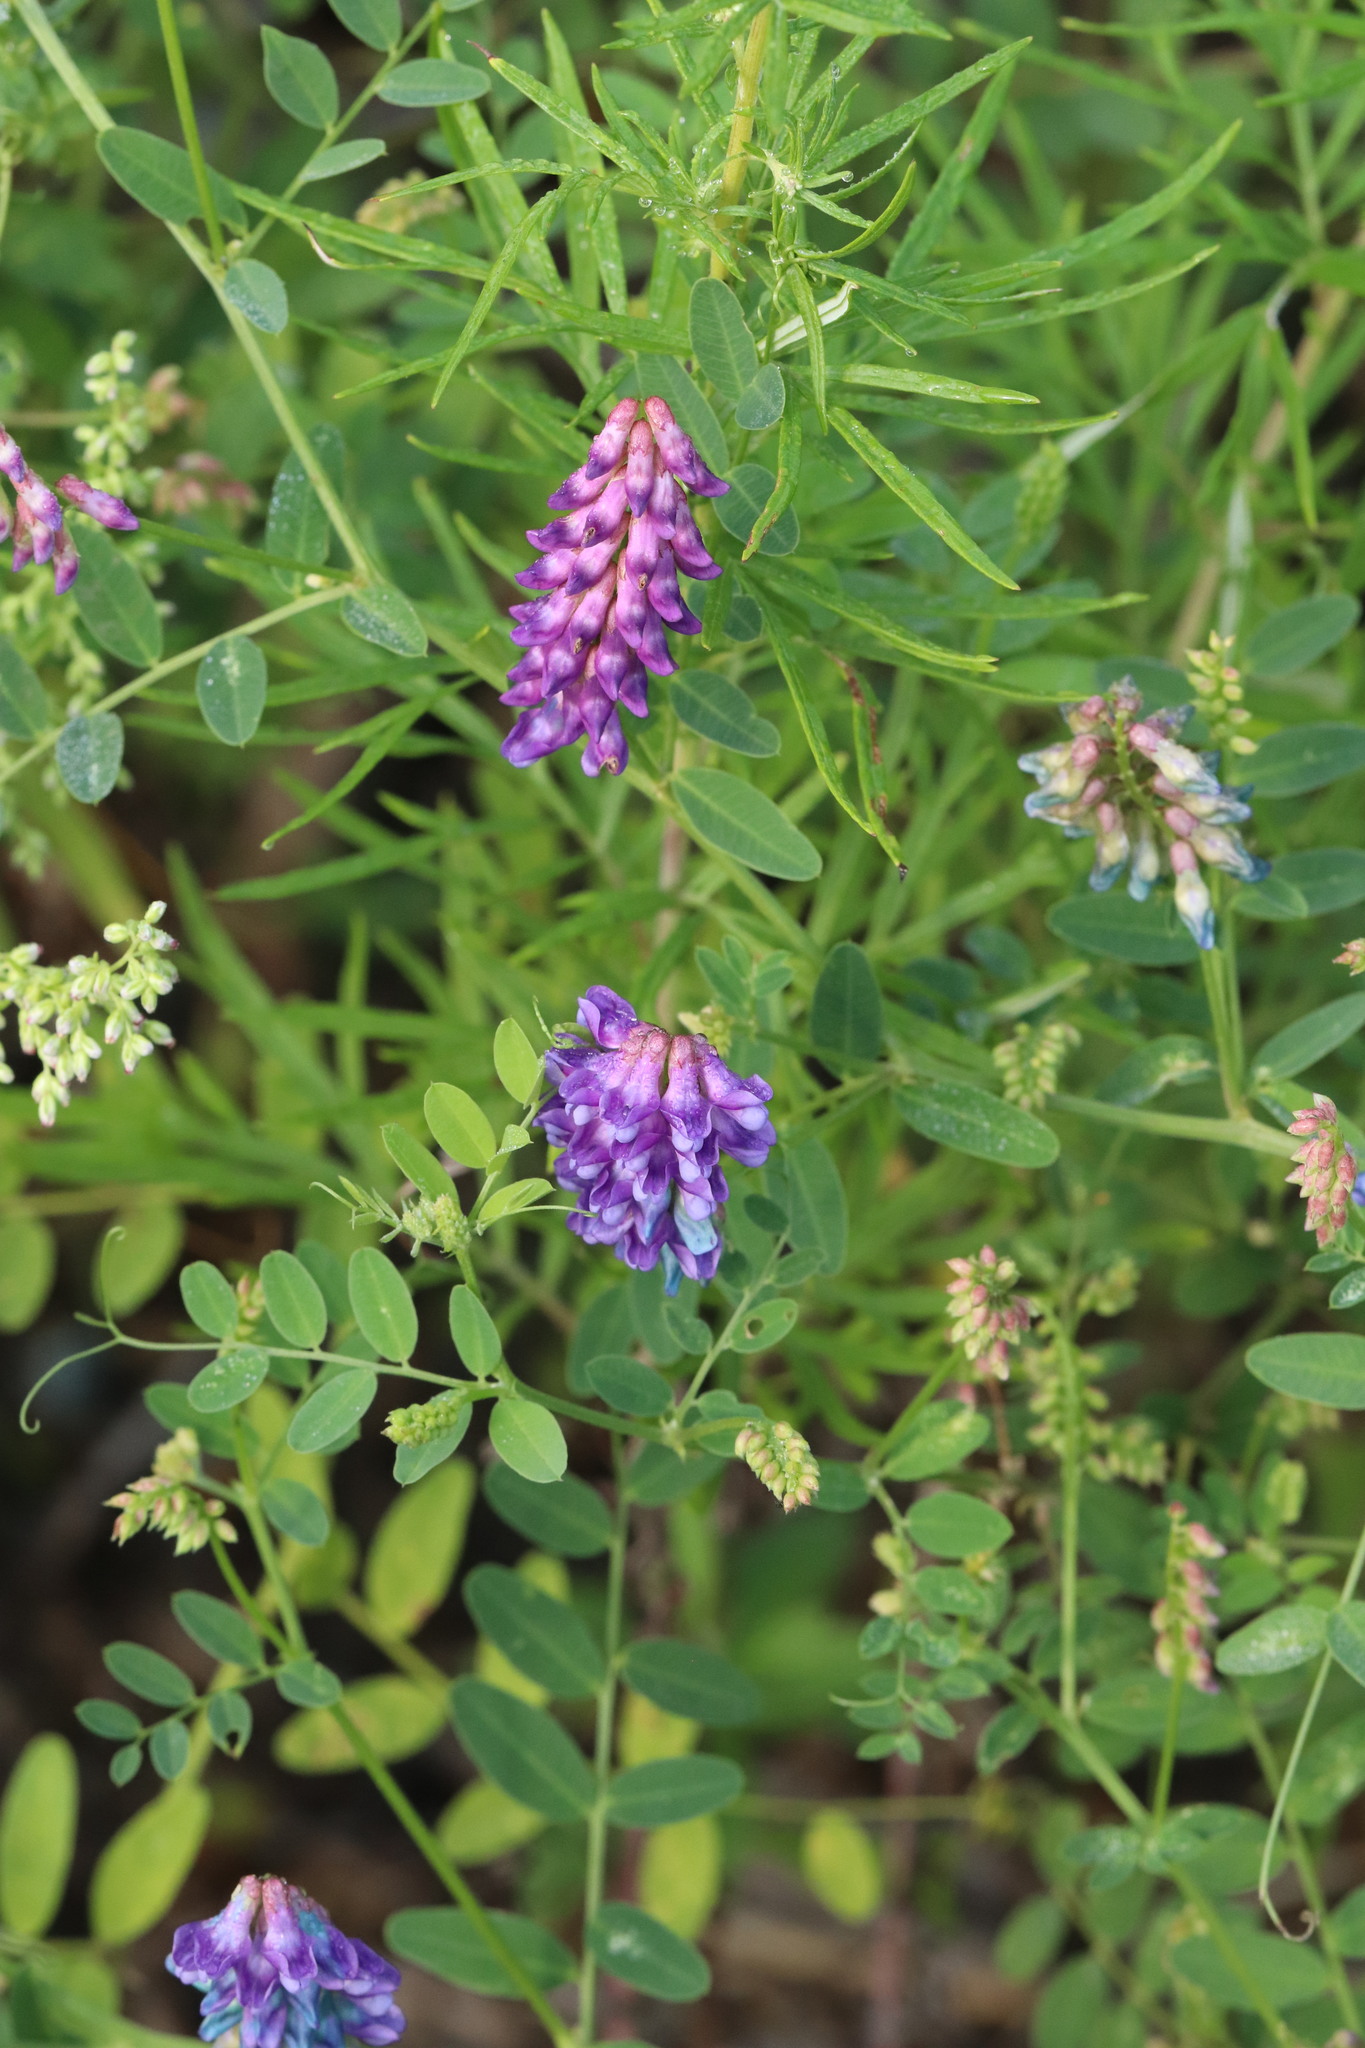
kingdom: Plantae
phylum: Tracheophyta
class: Magnoliopsida
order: Fabales
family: Fabaceae
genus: Vicia
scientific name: Vicia amurensis
